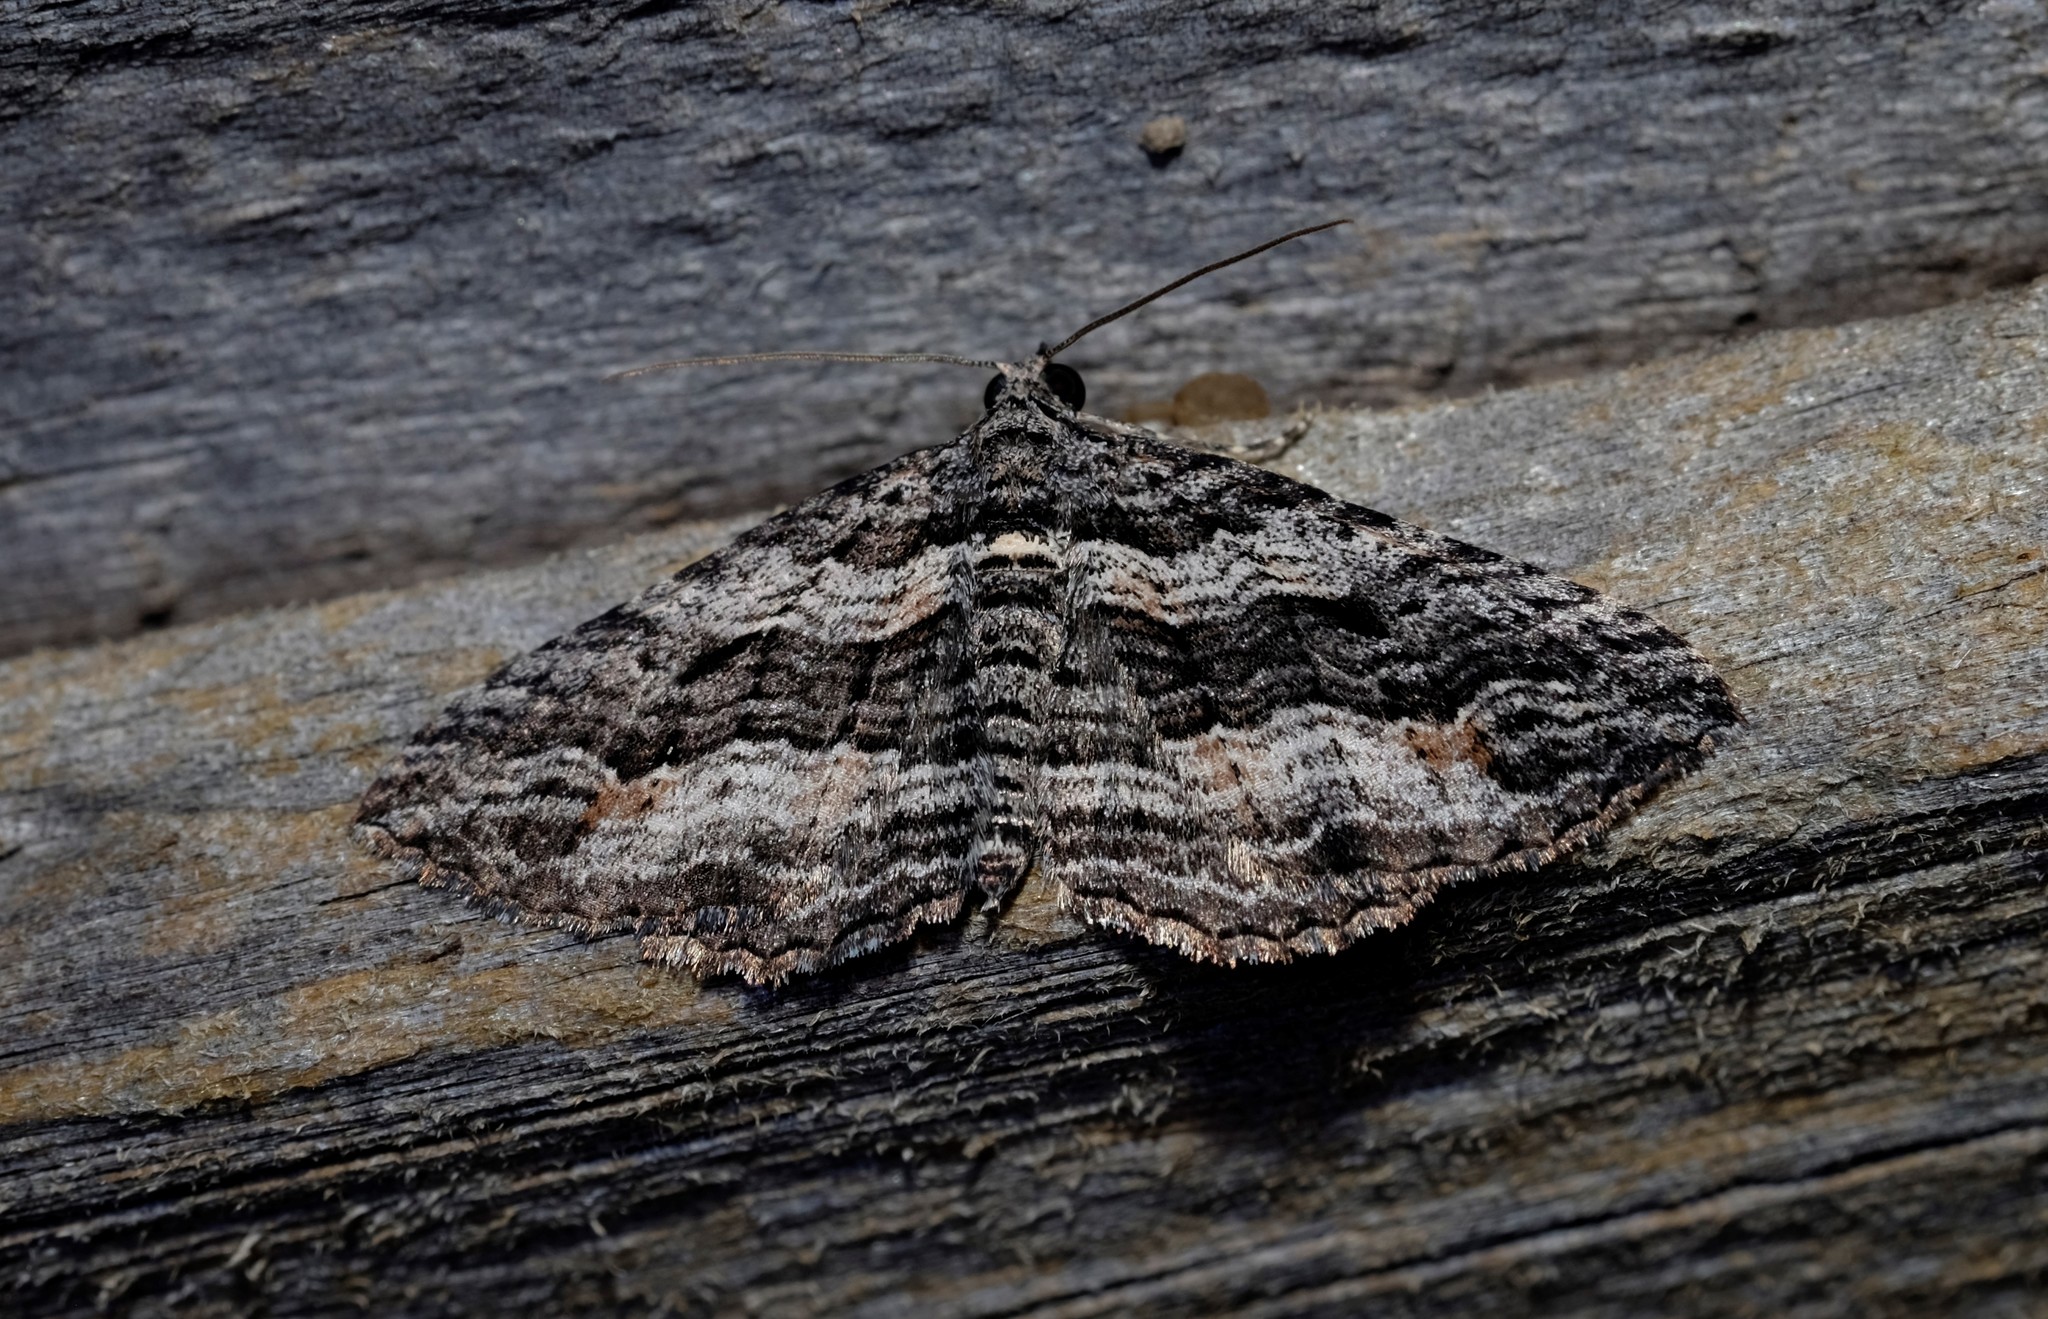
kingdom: Animalia
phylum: Arthropoda
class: Insecta
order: Lepidoptera
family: Geometridae
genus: Chrysolarentia
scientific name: Chrysolarentia severata
